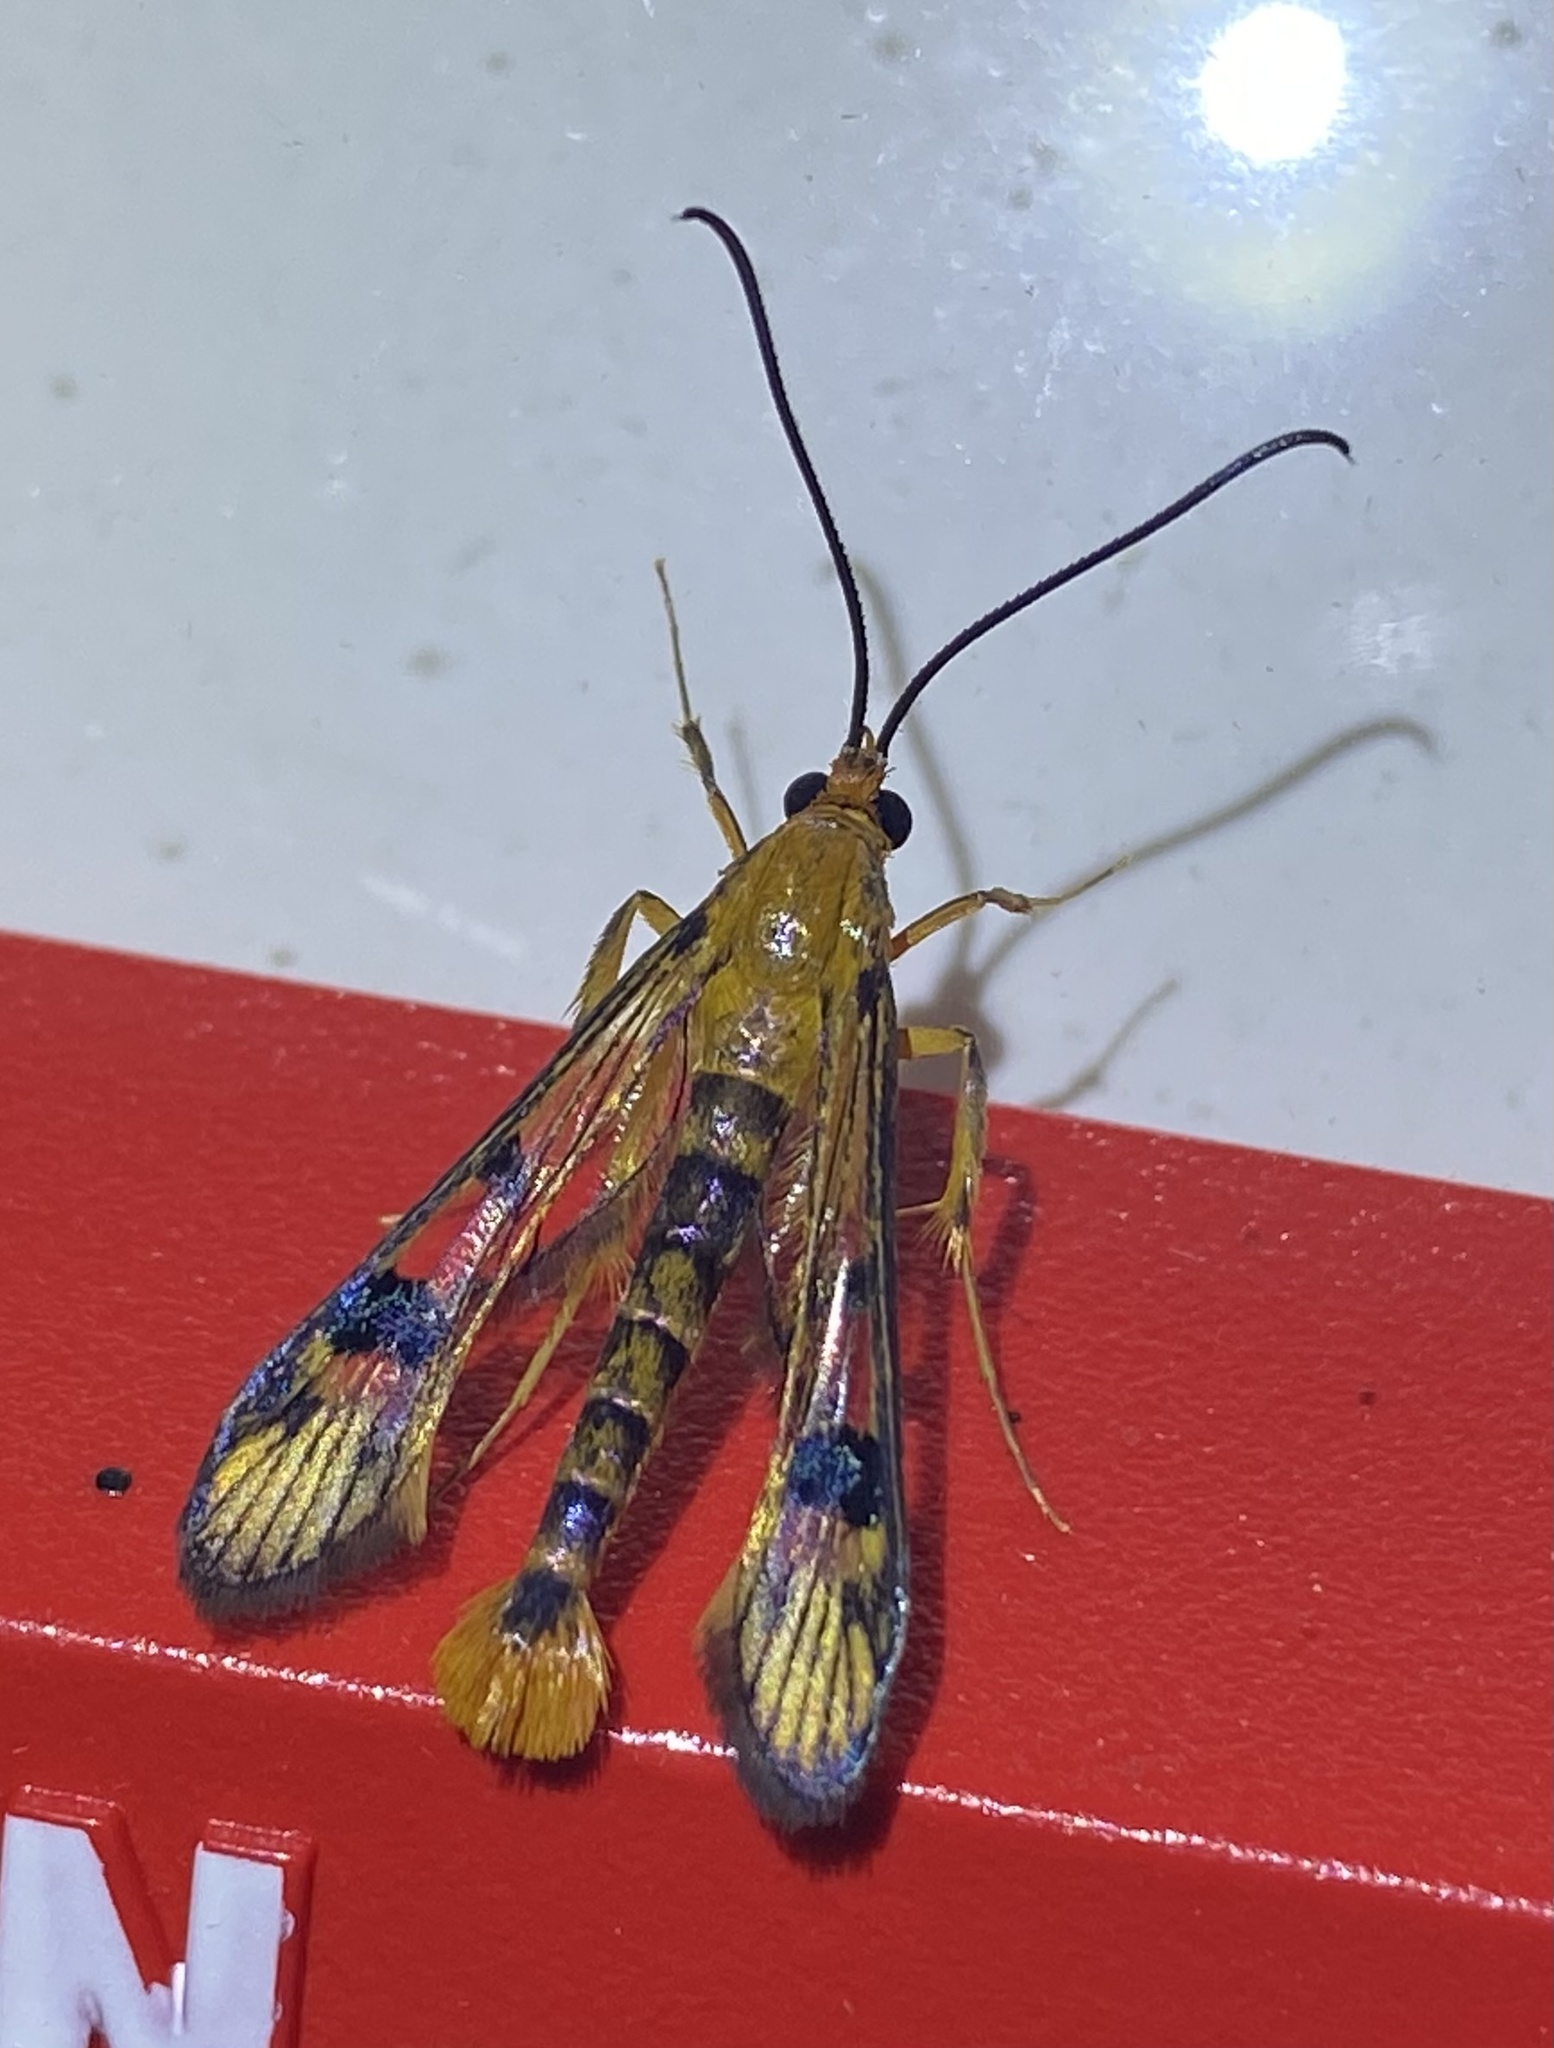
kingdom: Animalia
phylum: Arthropoda
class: Insecta
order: Lepidoptera
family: Sesiidae
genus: Synanthedon
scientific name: Synanthedon acerni
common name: Maple callus borer moth
